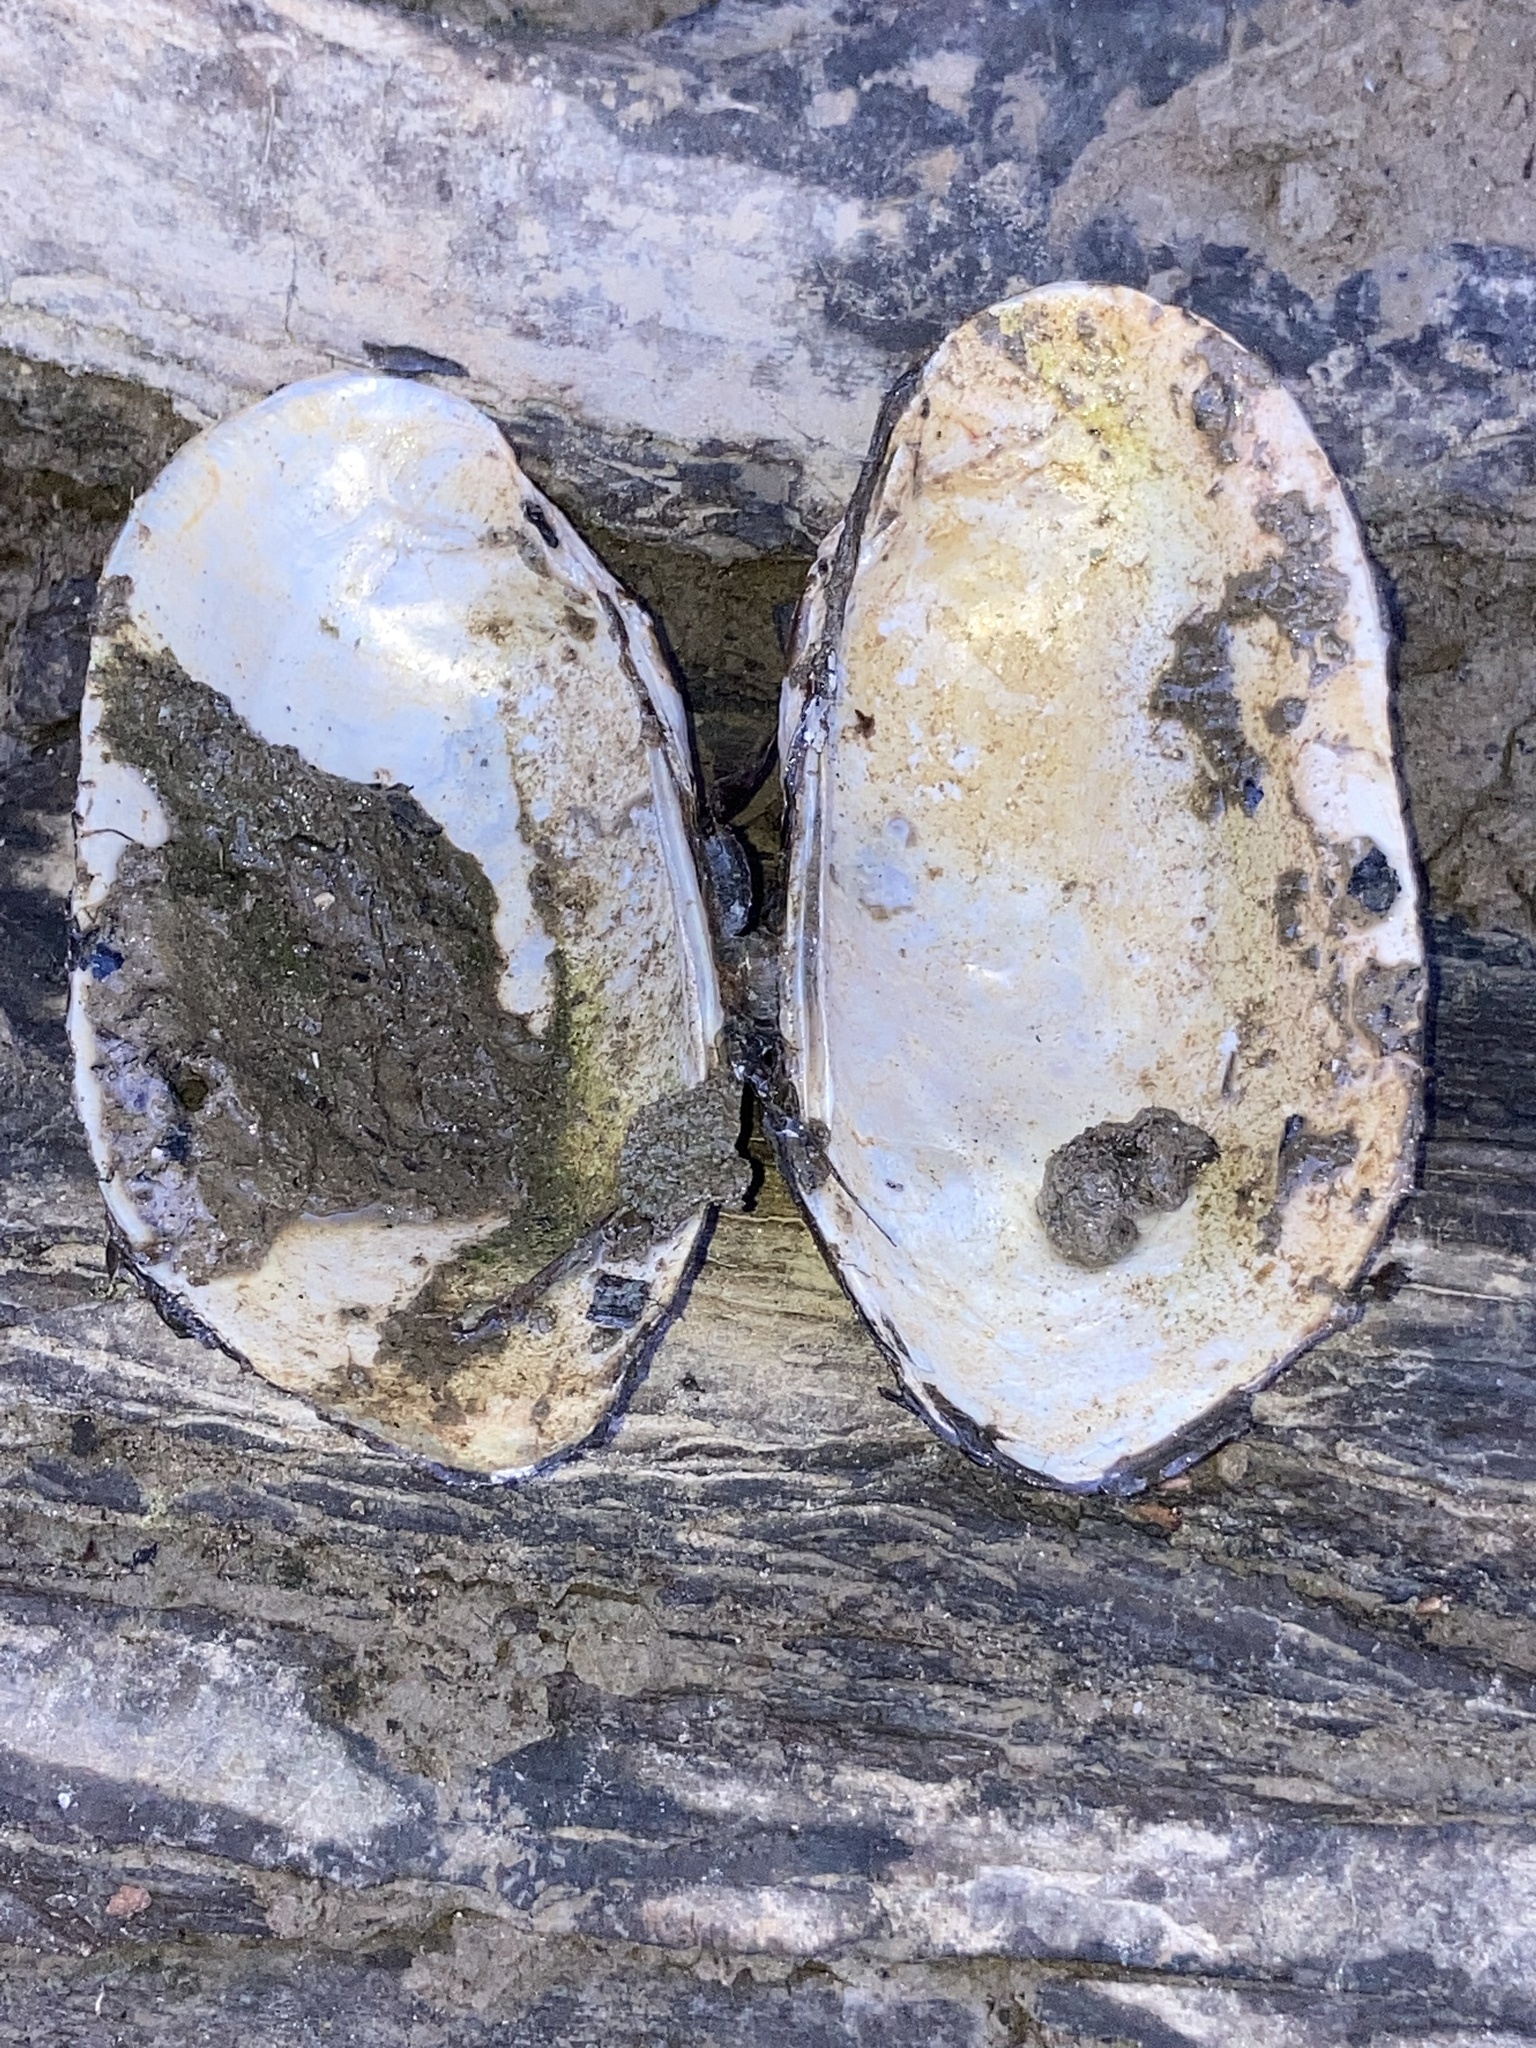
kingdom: Animalia
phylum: Mollusca
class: Bivalvia
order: Unionida
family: Unionidae
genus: Lampsilis
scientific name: Lampsilis teres
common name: Yellow sandshell
